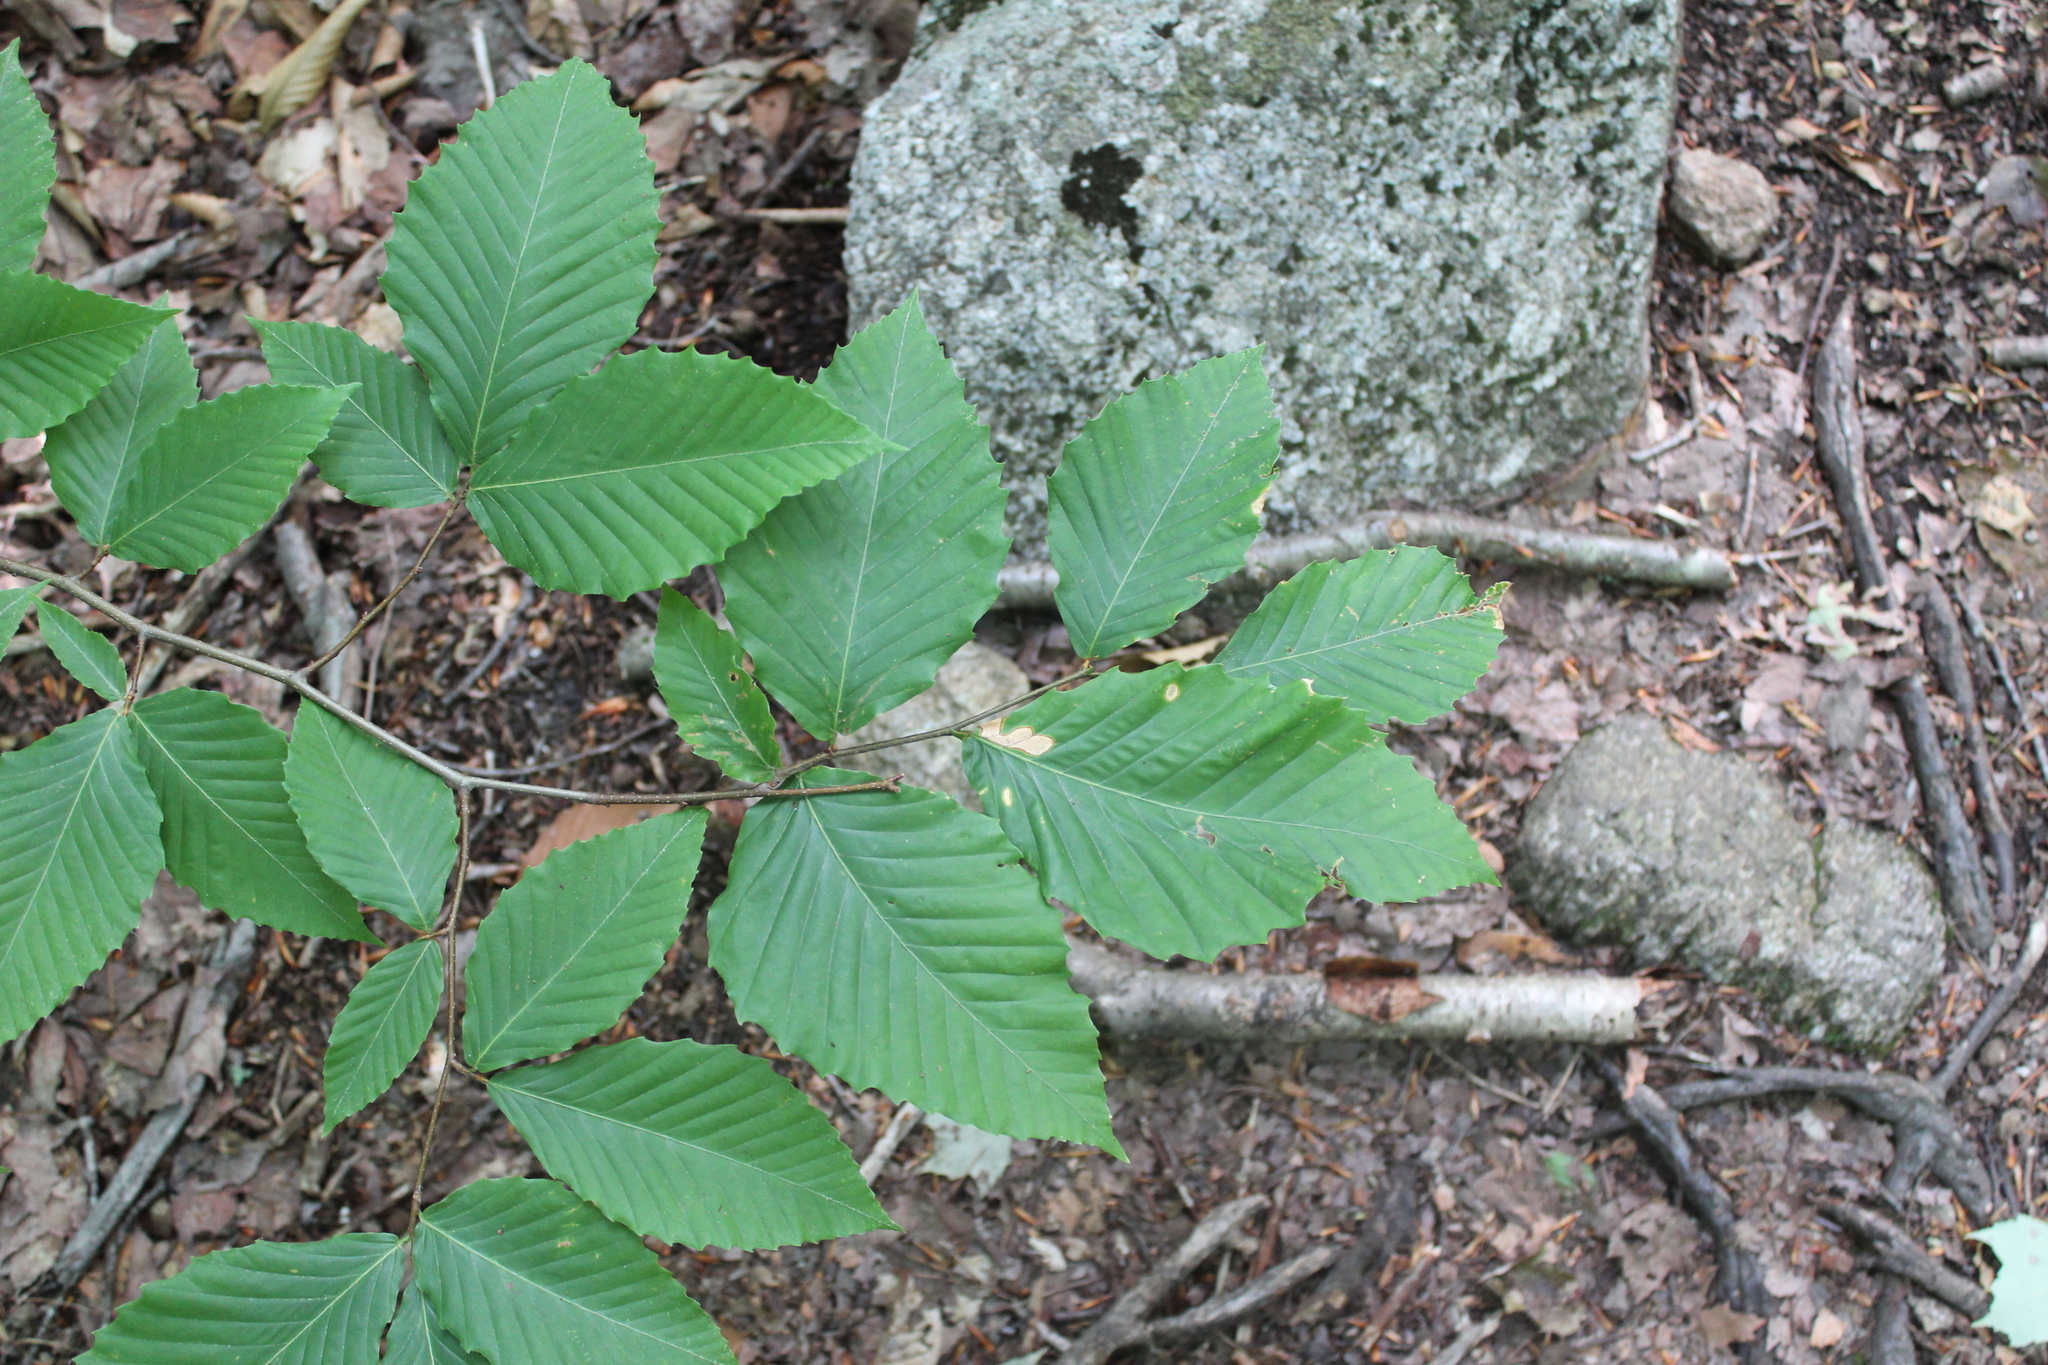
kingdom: Plantae
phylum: Tracheophyta
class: Magnoliopsida
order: Fagales
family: Fagaceae
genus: Fagus
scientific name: Fagus grandifolia
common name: American beech
